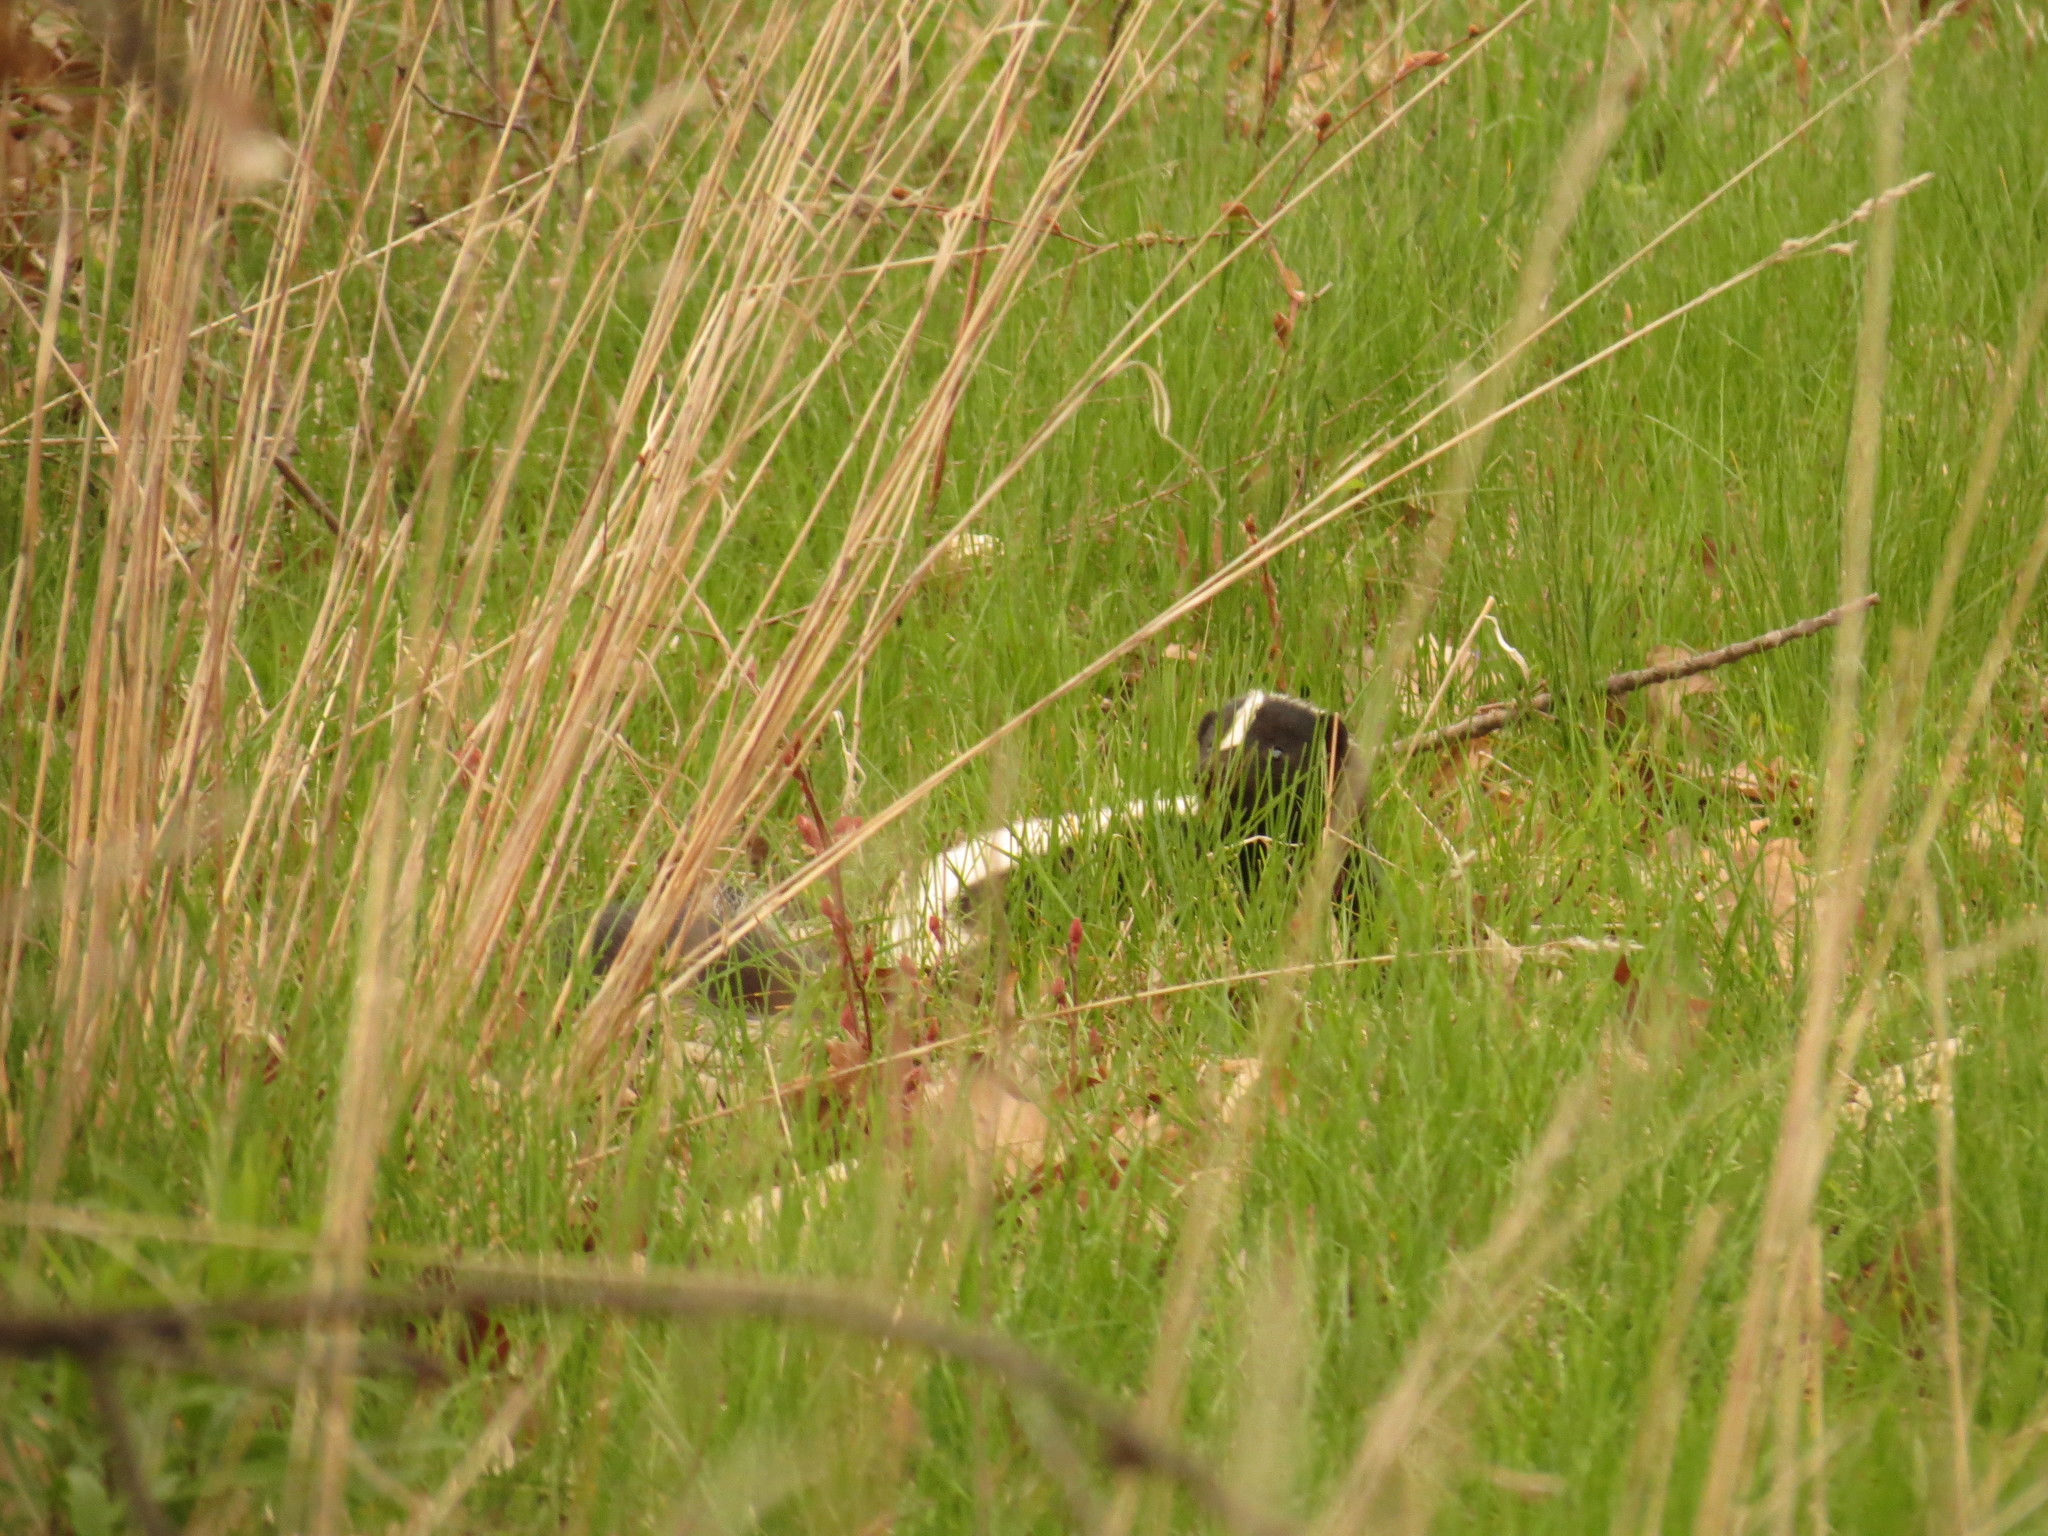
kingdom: Animalia
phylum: Chordata
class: Mammalia
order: Carnivora
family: Mephitidae
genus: Mephitis
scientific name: Mephitis mephitis
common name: Striped skunk
